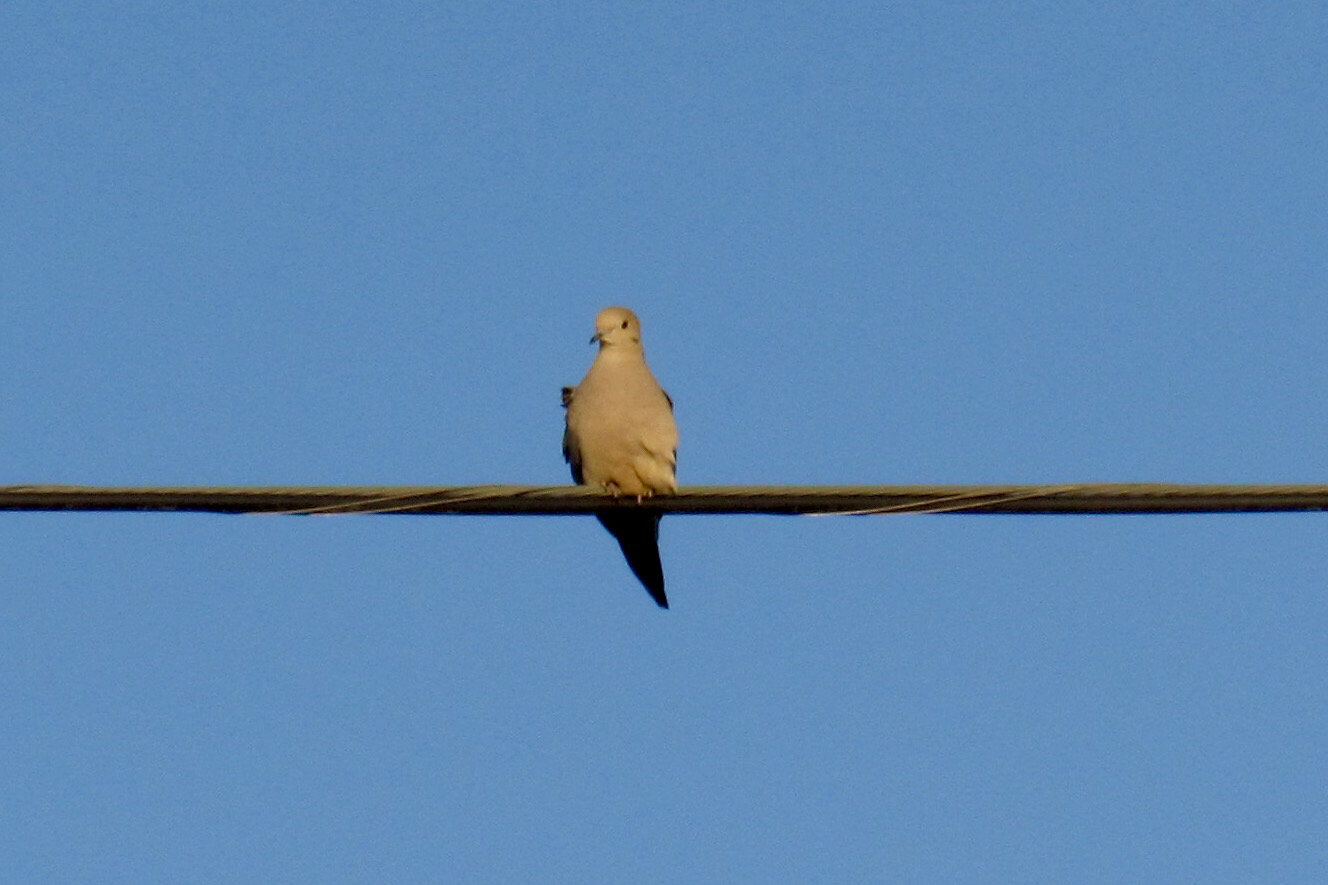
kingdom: Animalia
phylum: Chordata
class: Aves
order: Columbiformes
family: Columbidae
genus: Zenaida
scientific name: Zenaida macroura
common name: Mourning dove
